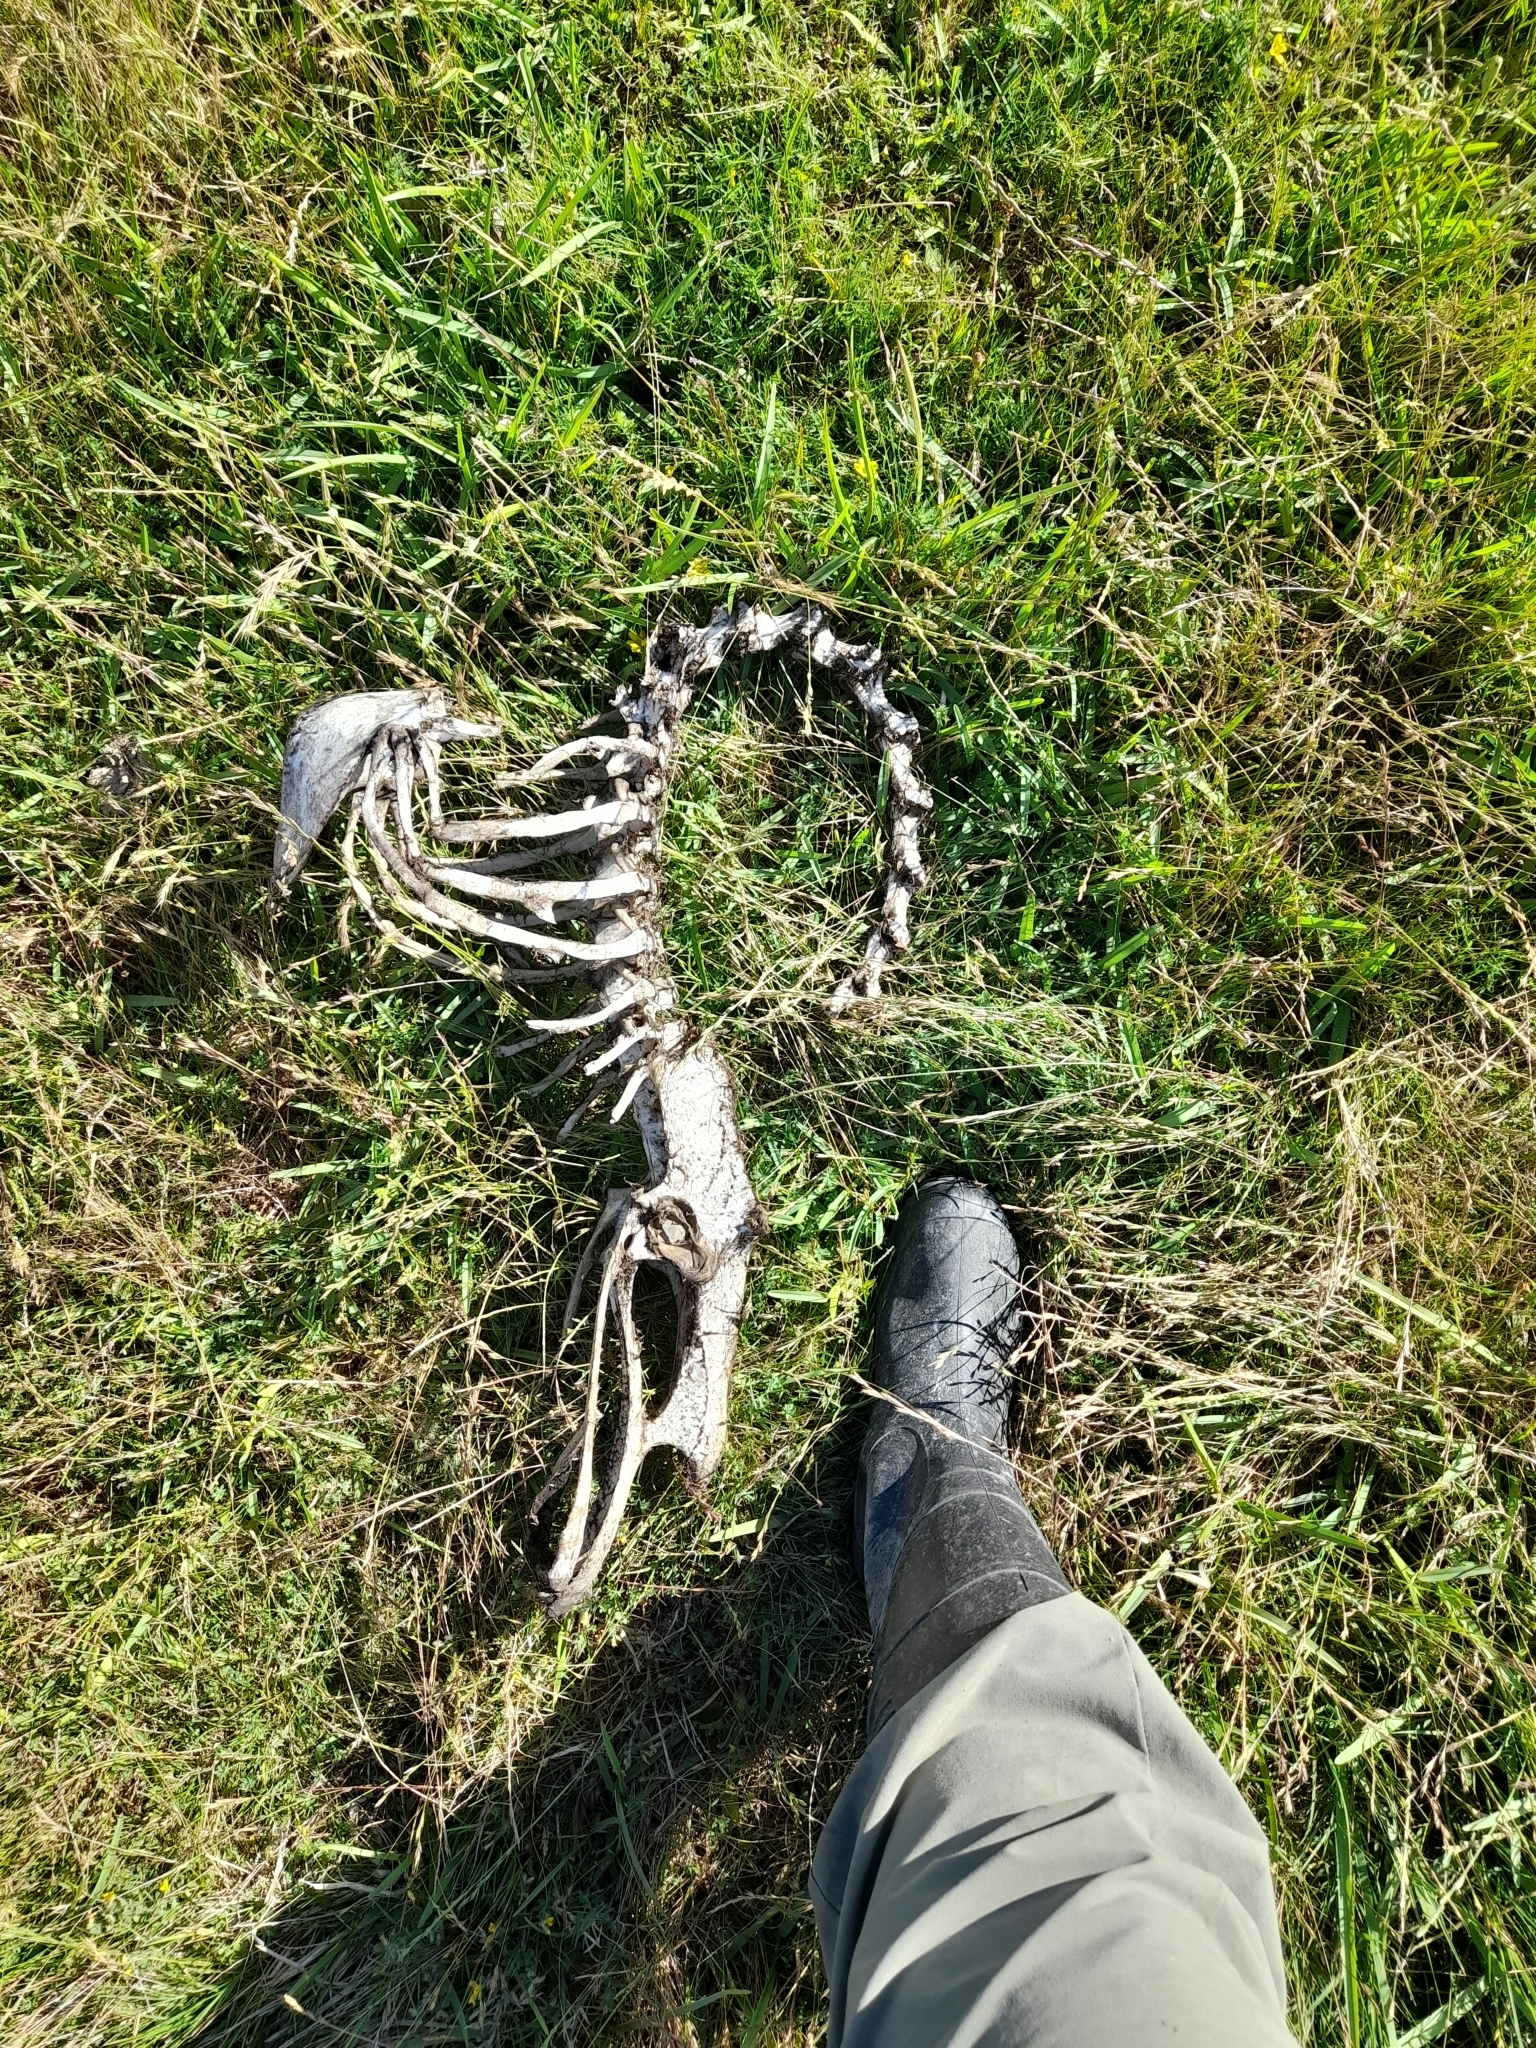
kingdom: Animalia
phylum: Chordata
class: Aves
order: Rheiformes
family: Rheidae
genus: Rhea
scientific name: Rhea americana
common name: Greater rhea
